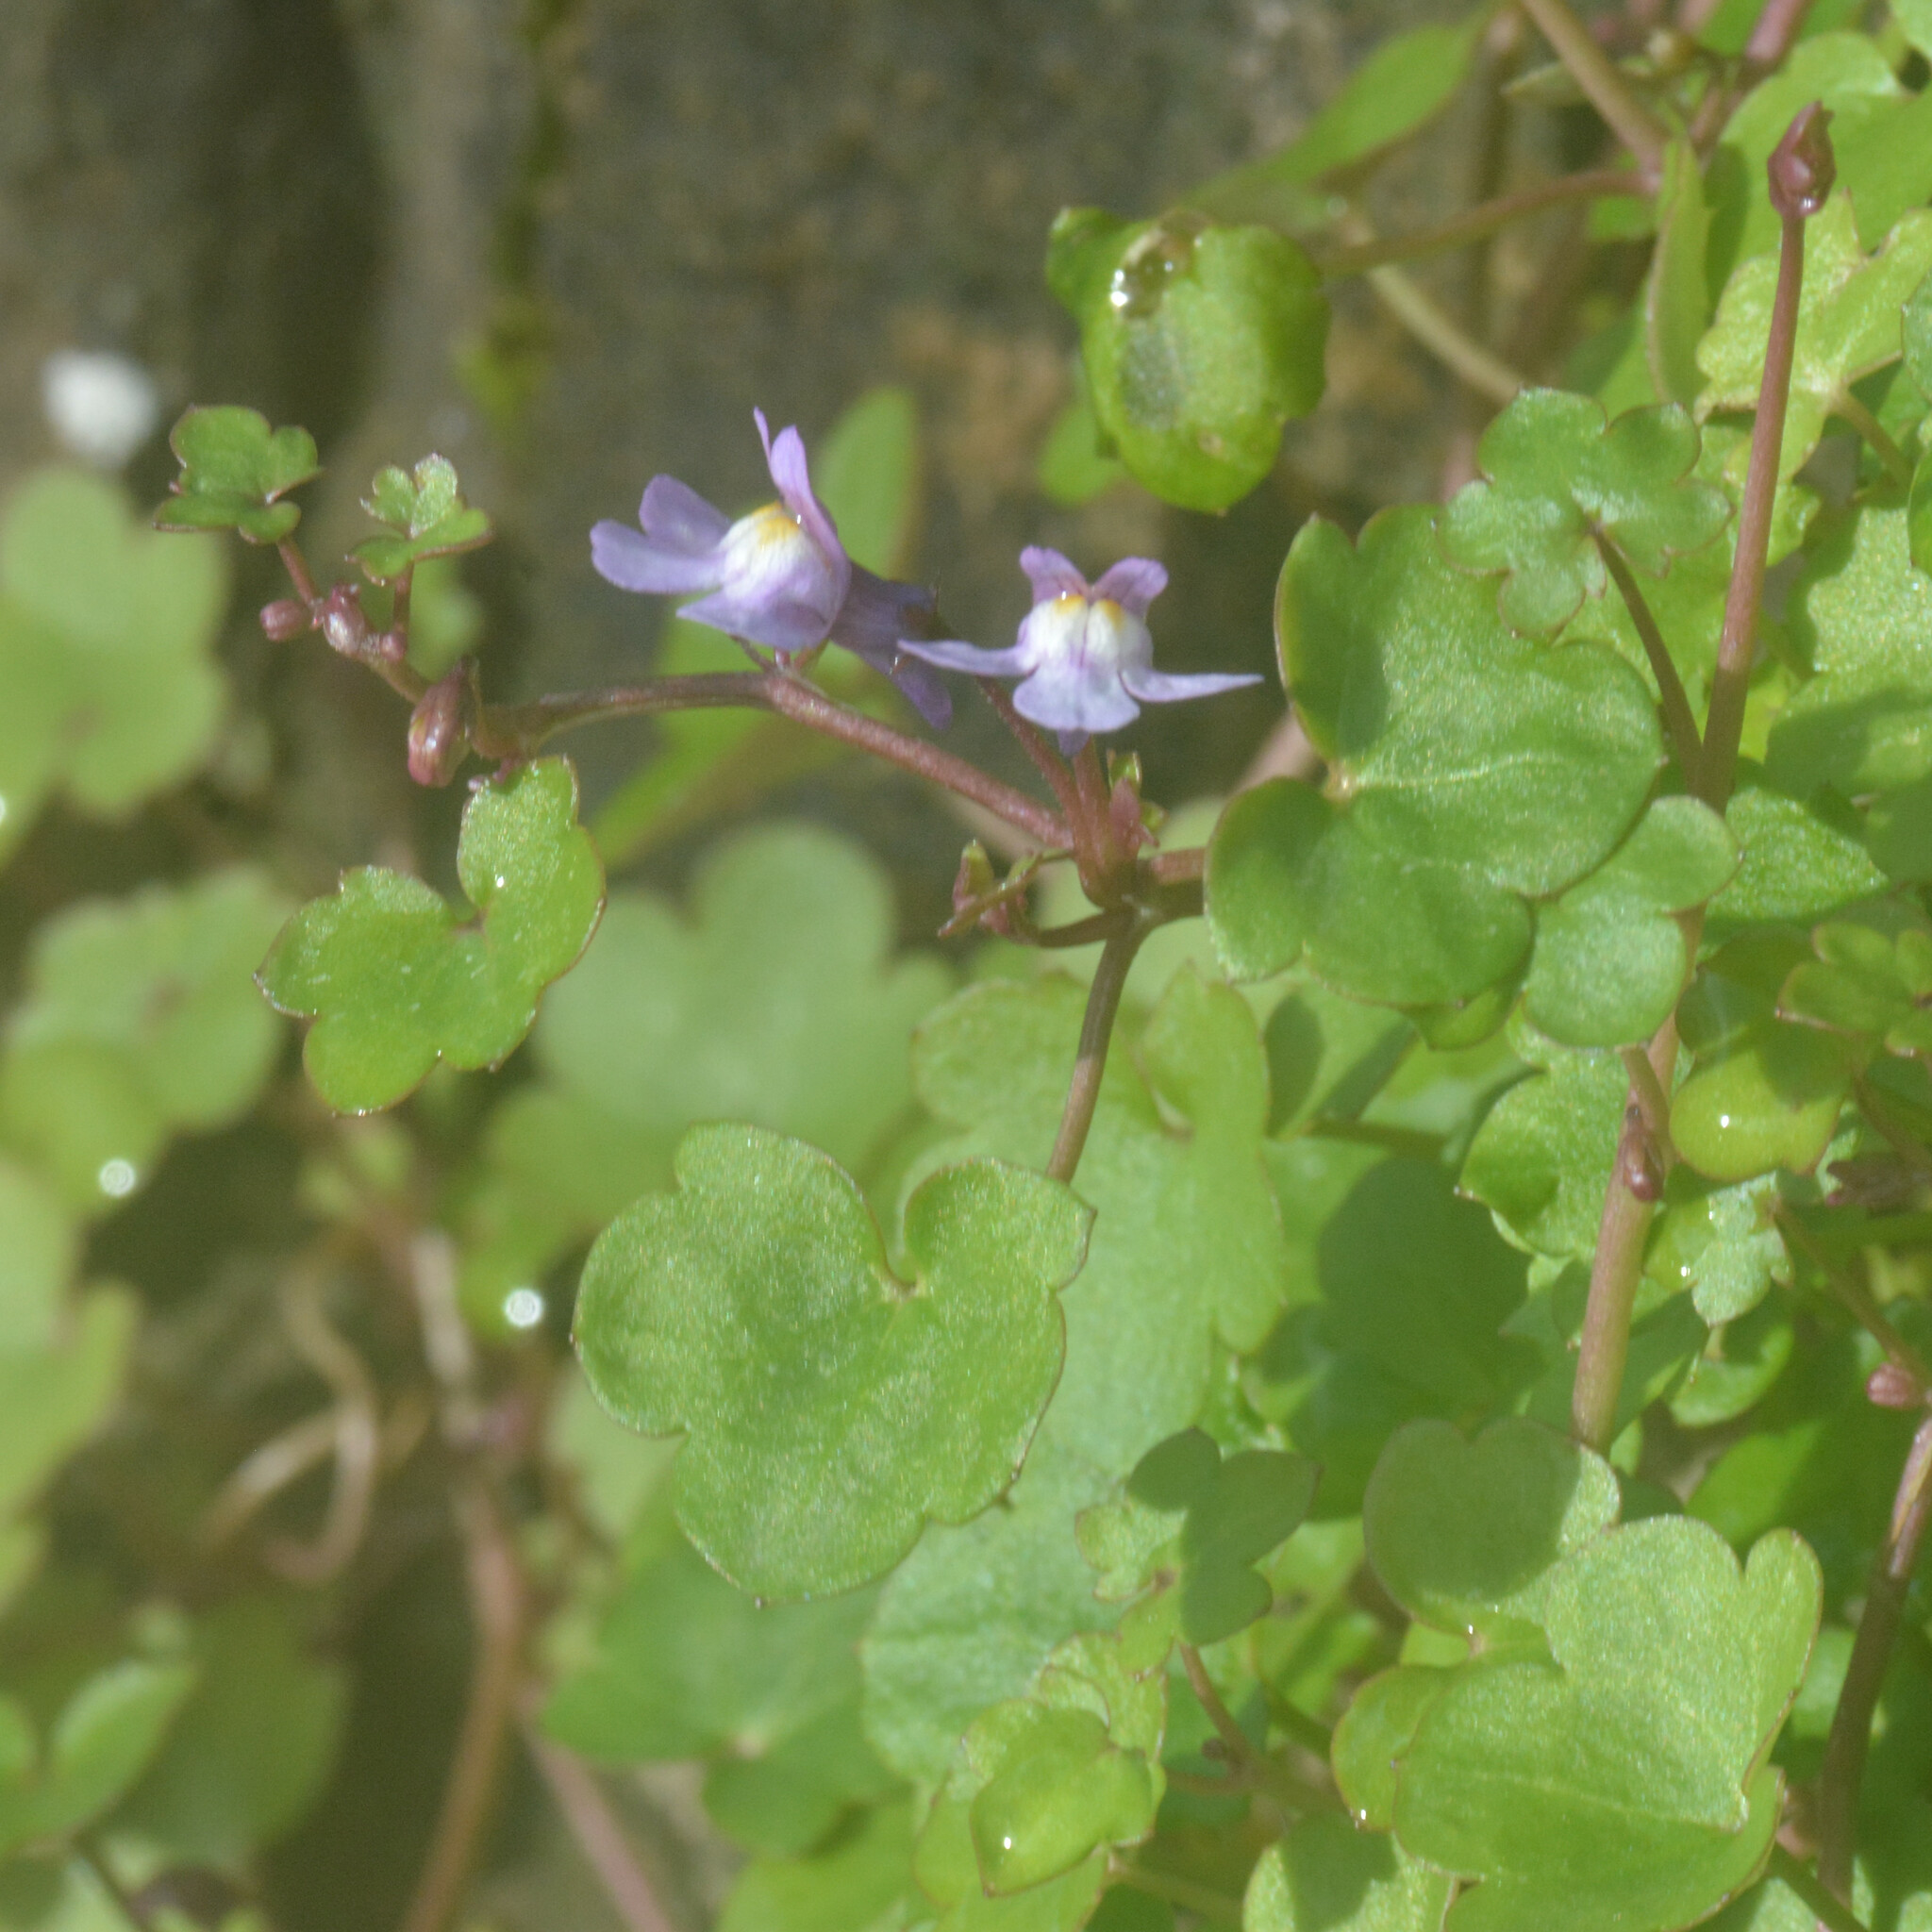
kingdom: Plantae
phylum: Tracheophyta
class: Magnoliopsida
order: Lamiales
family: Plantaginaceae
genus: Cymbalaria
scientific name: Cymbalaria muralis
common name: Ivy-leaved toadflax
